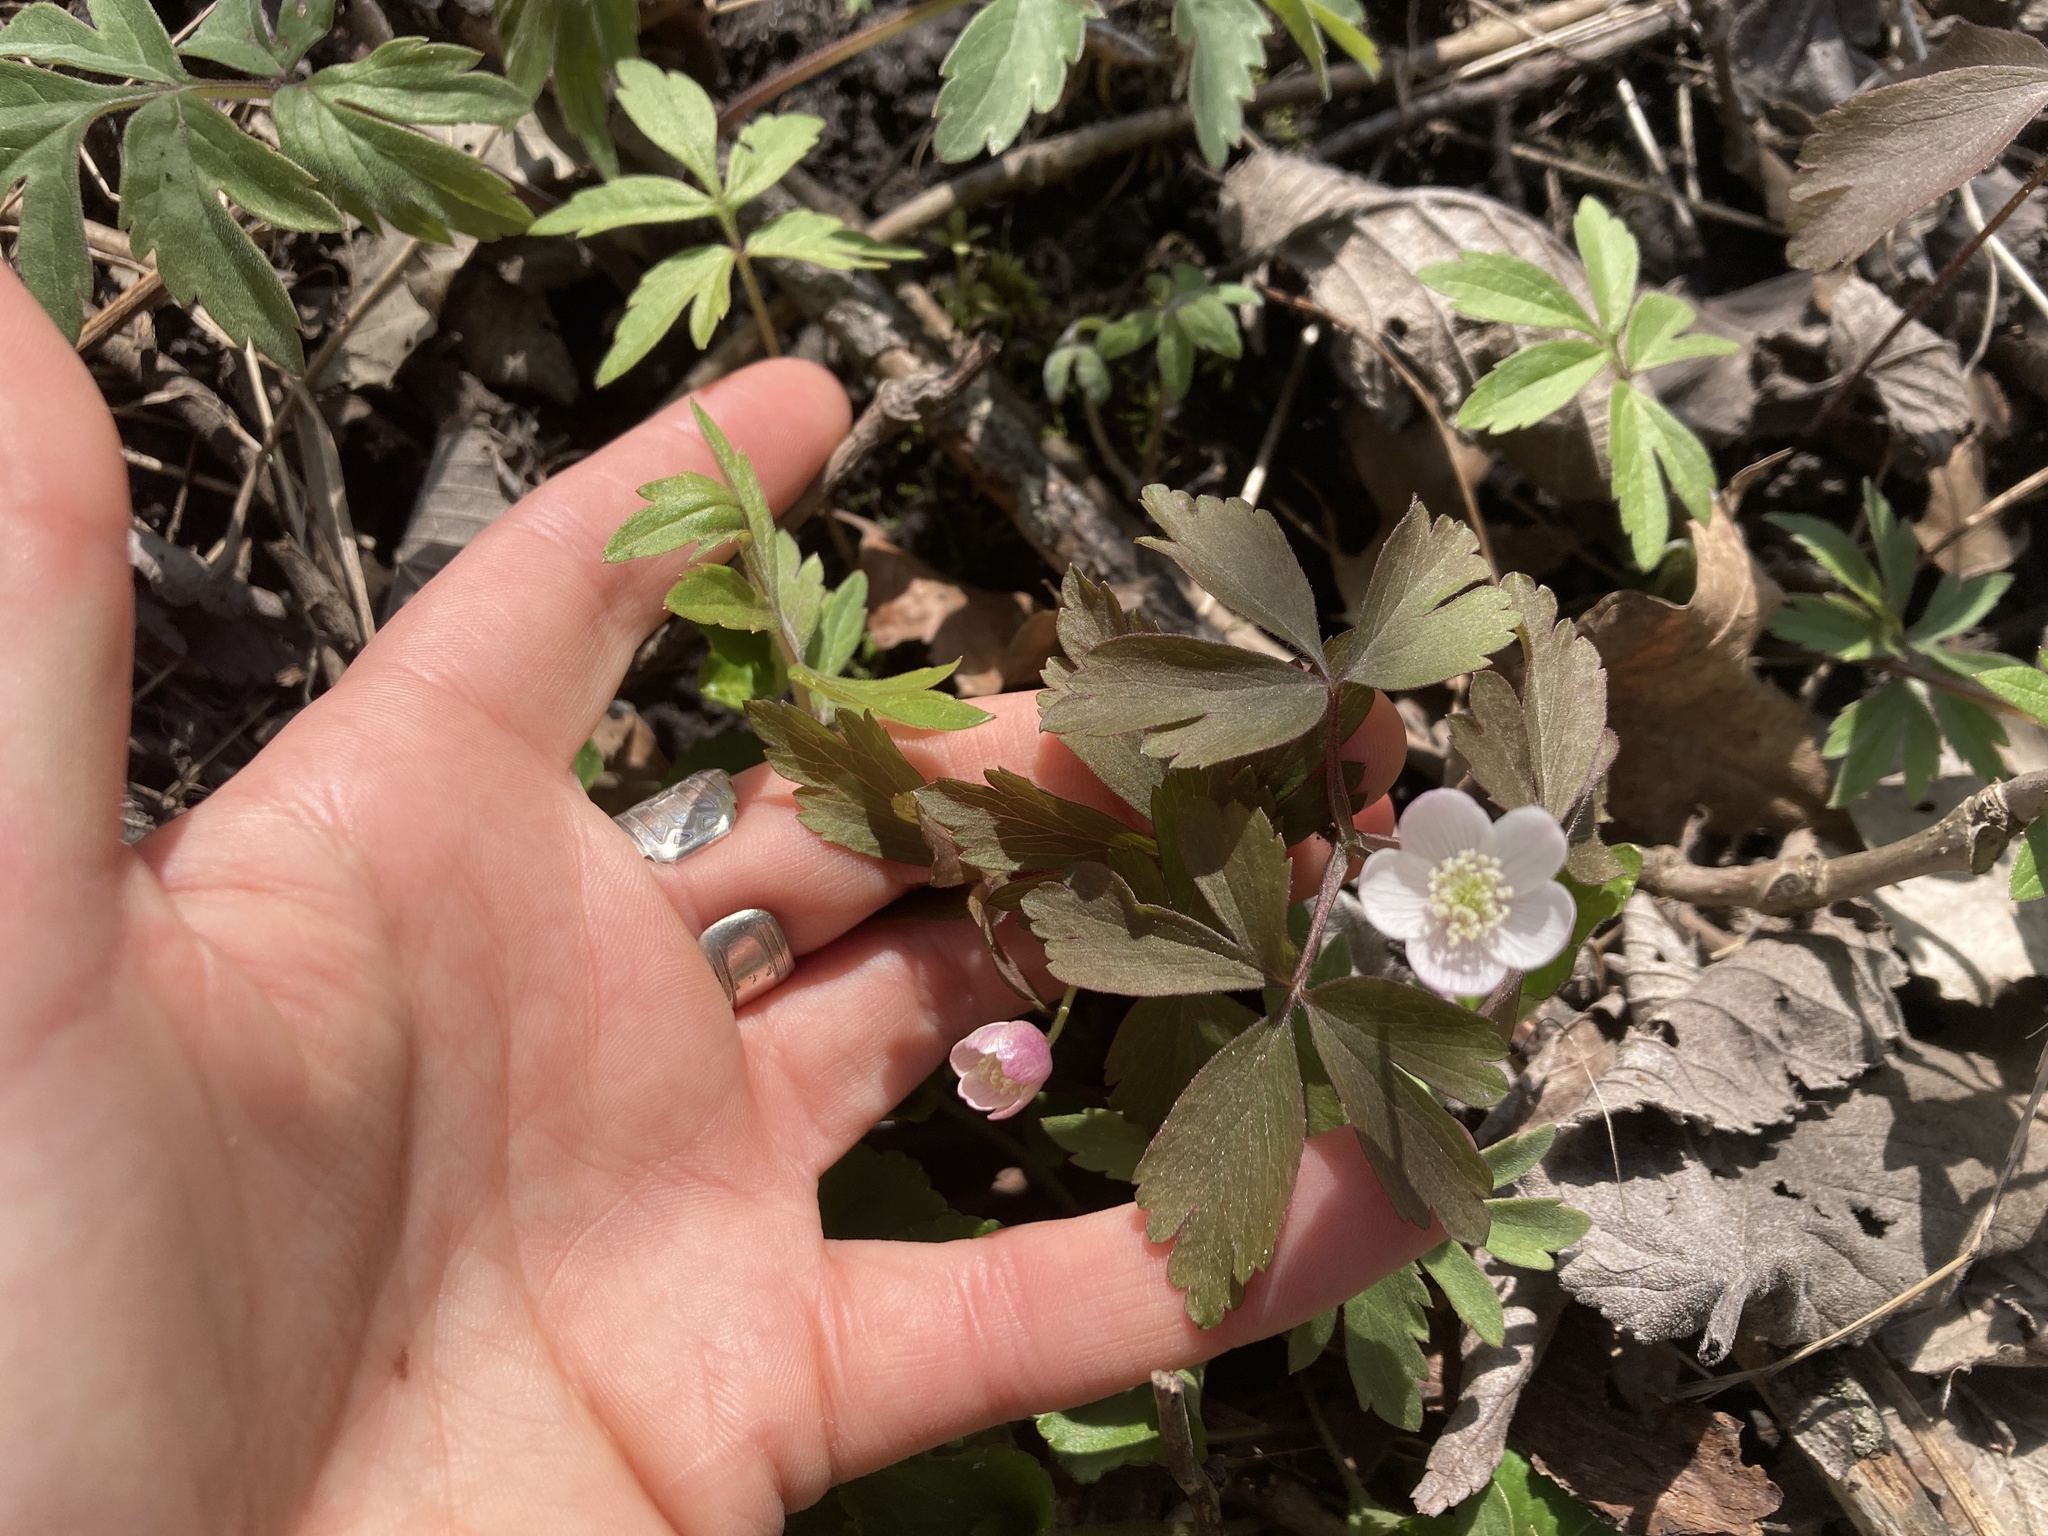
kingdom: Plantae
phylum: Tracheophyta
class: Magnoliopsida
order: Ranunculales
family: Ranunculaceae
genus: Anemone
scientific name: Anemone quinquefolia
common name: Wood anemone
